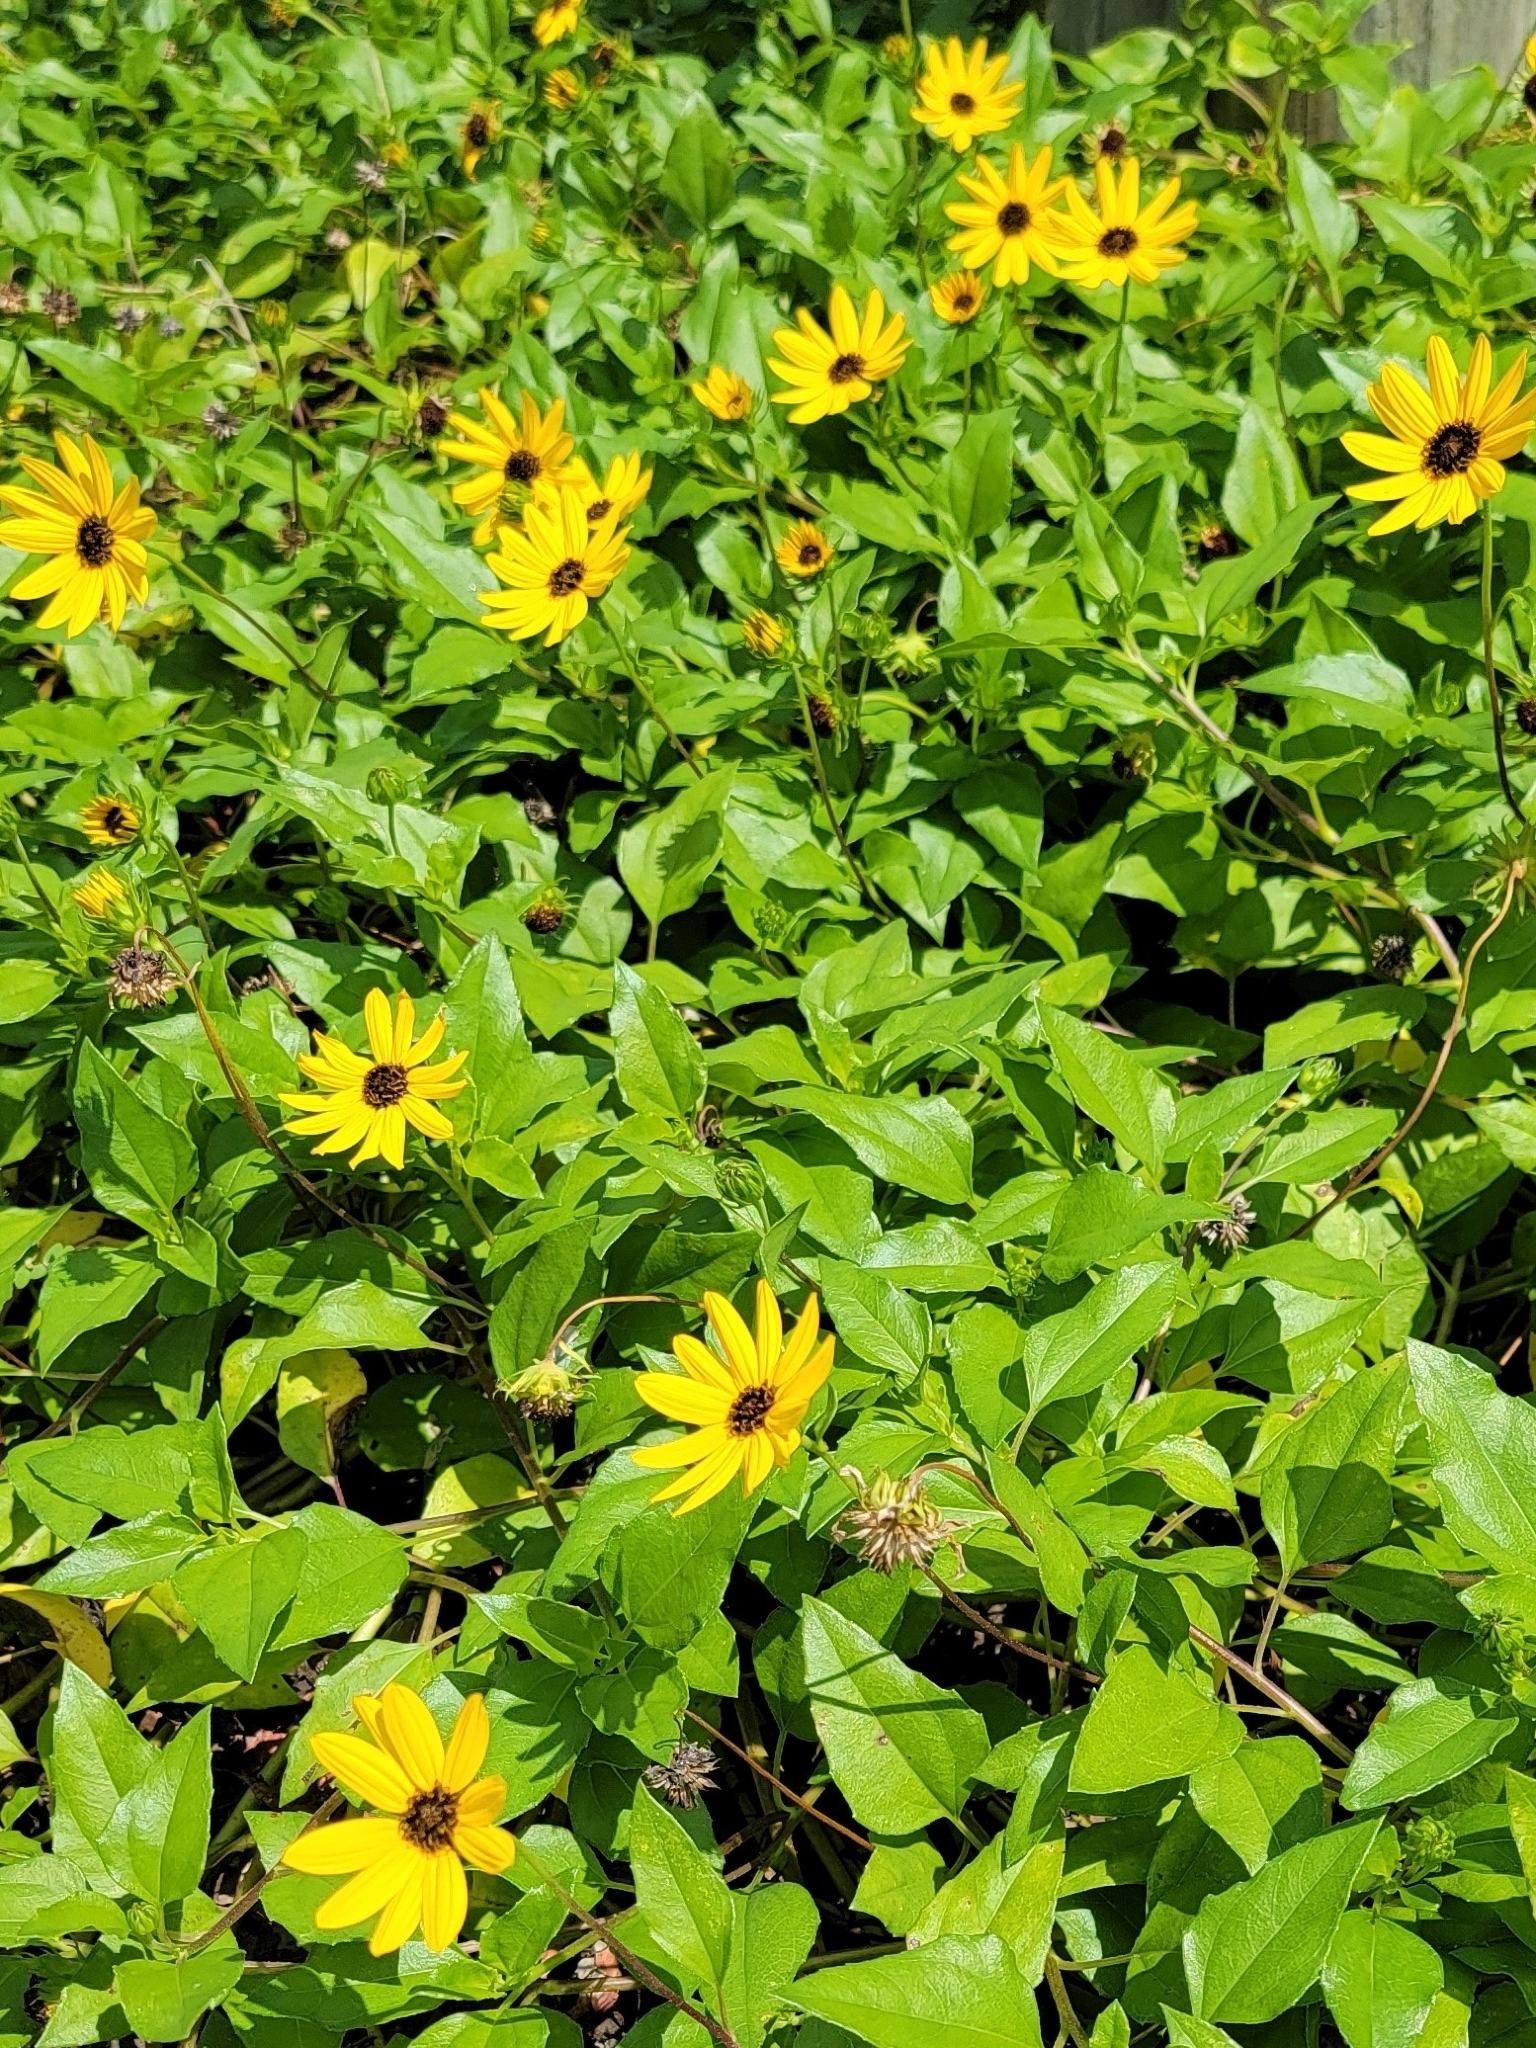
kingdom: Plantae
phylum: Tracheophyta
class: Magnoliopsida
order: Asterales
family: Asteraceae
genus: Helianthus
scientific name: Helianthus debilis
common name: Weak sunflower
